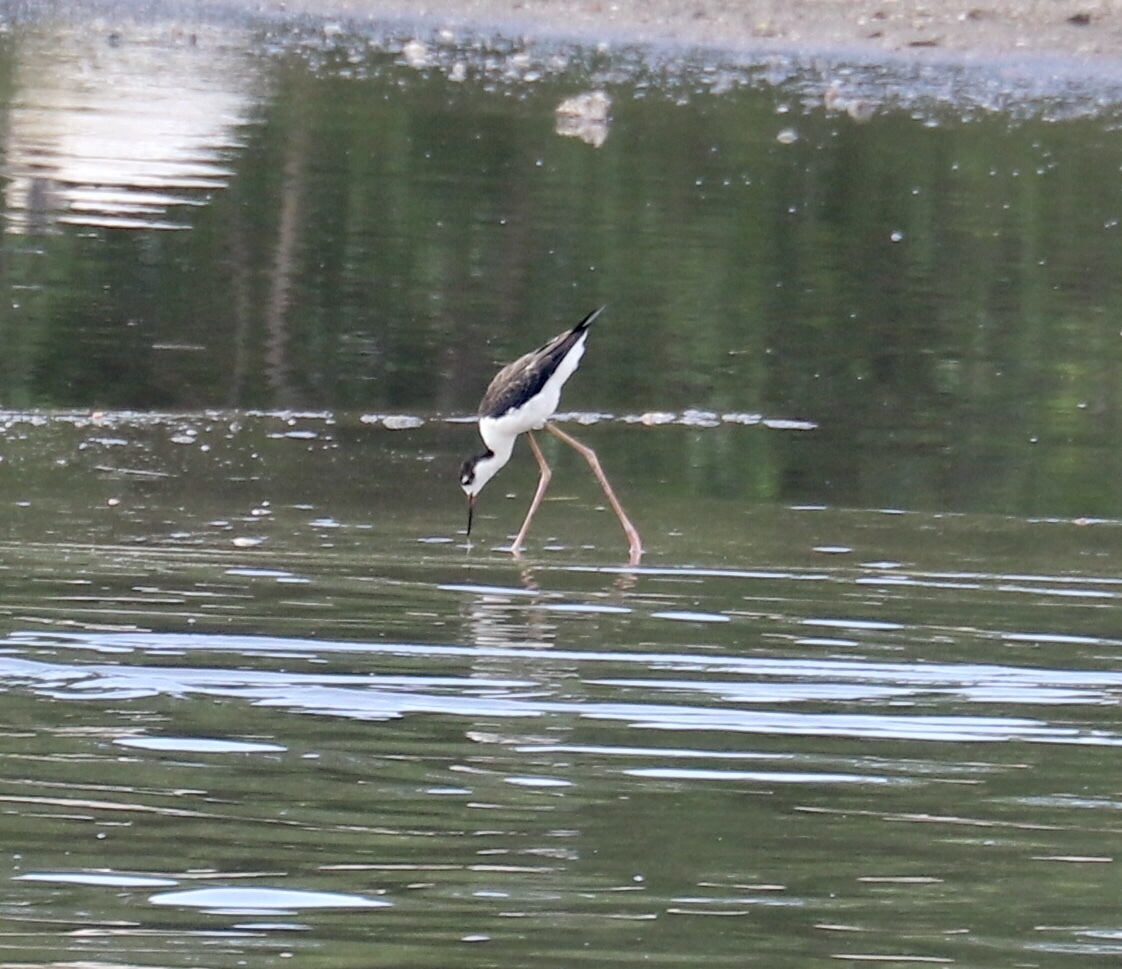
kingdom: Animalia
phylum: Chordata
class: Aves
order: Charadriiformes
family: Recurvirostridae
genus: Himantopus
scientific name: Himantopus mexicanus
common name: Black-necked stilt
